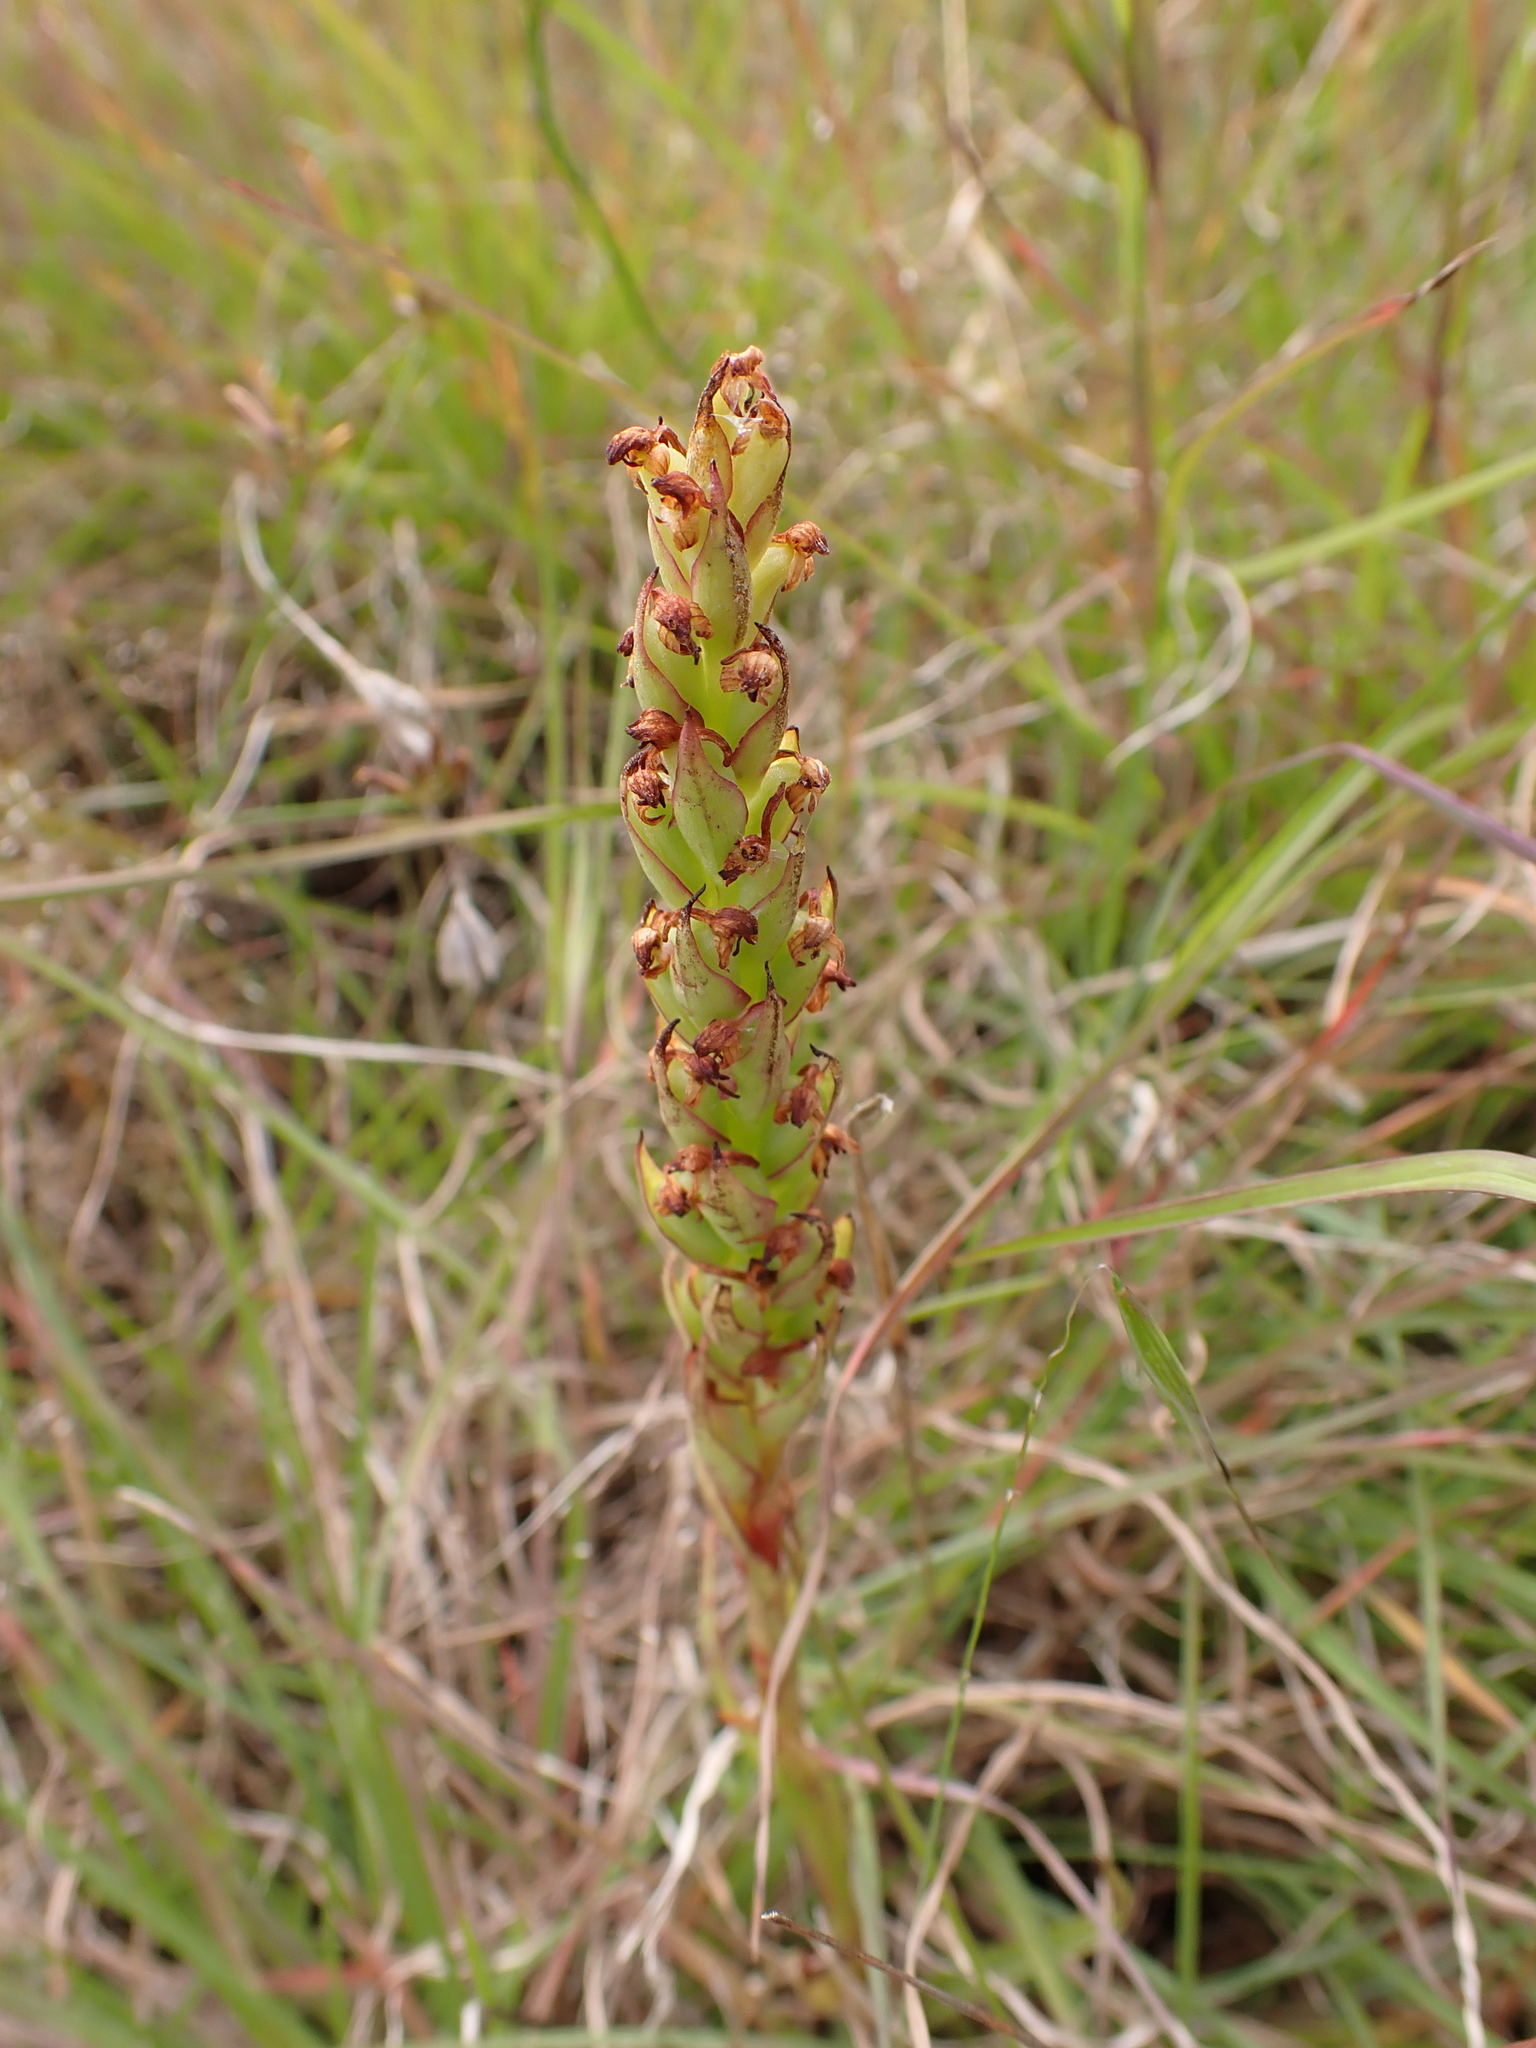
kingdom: Plantae
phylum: Tracheophyta
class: Liliopsida
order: Asparagales
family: Orchidaceae
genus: Disa
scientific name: Disa bracteata
